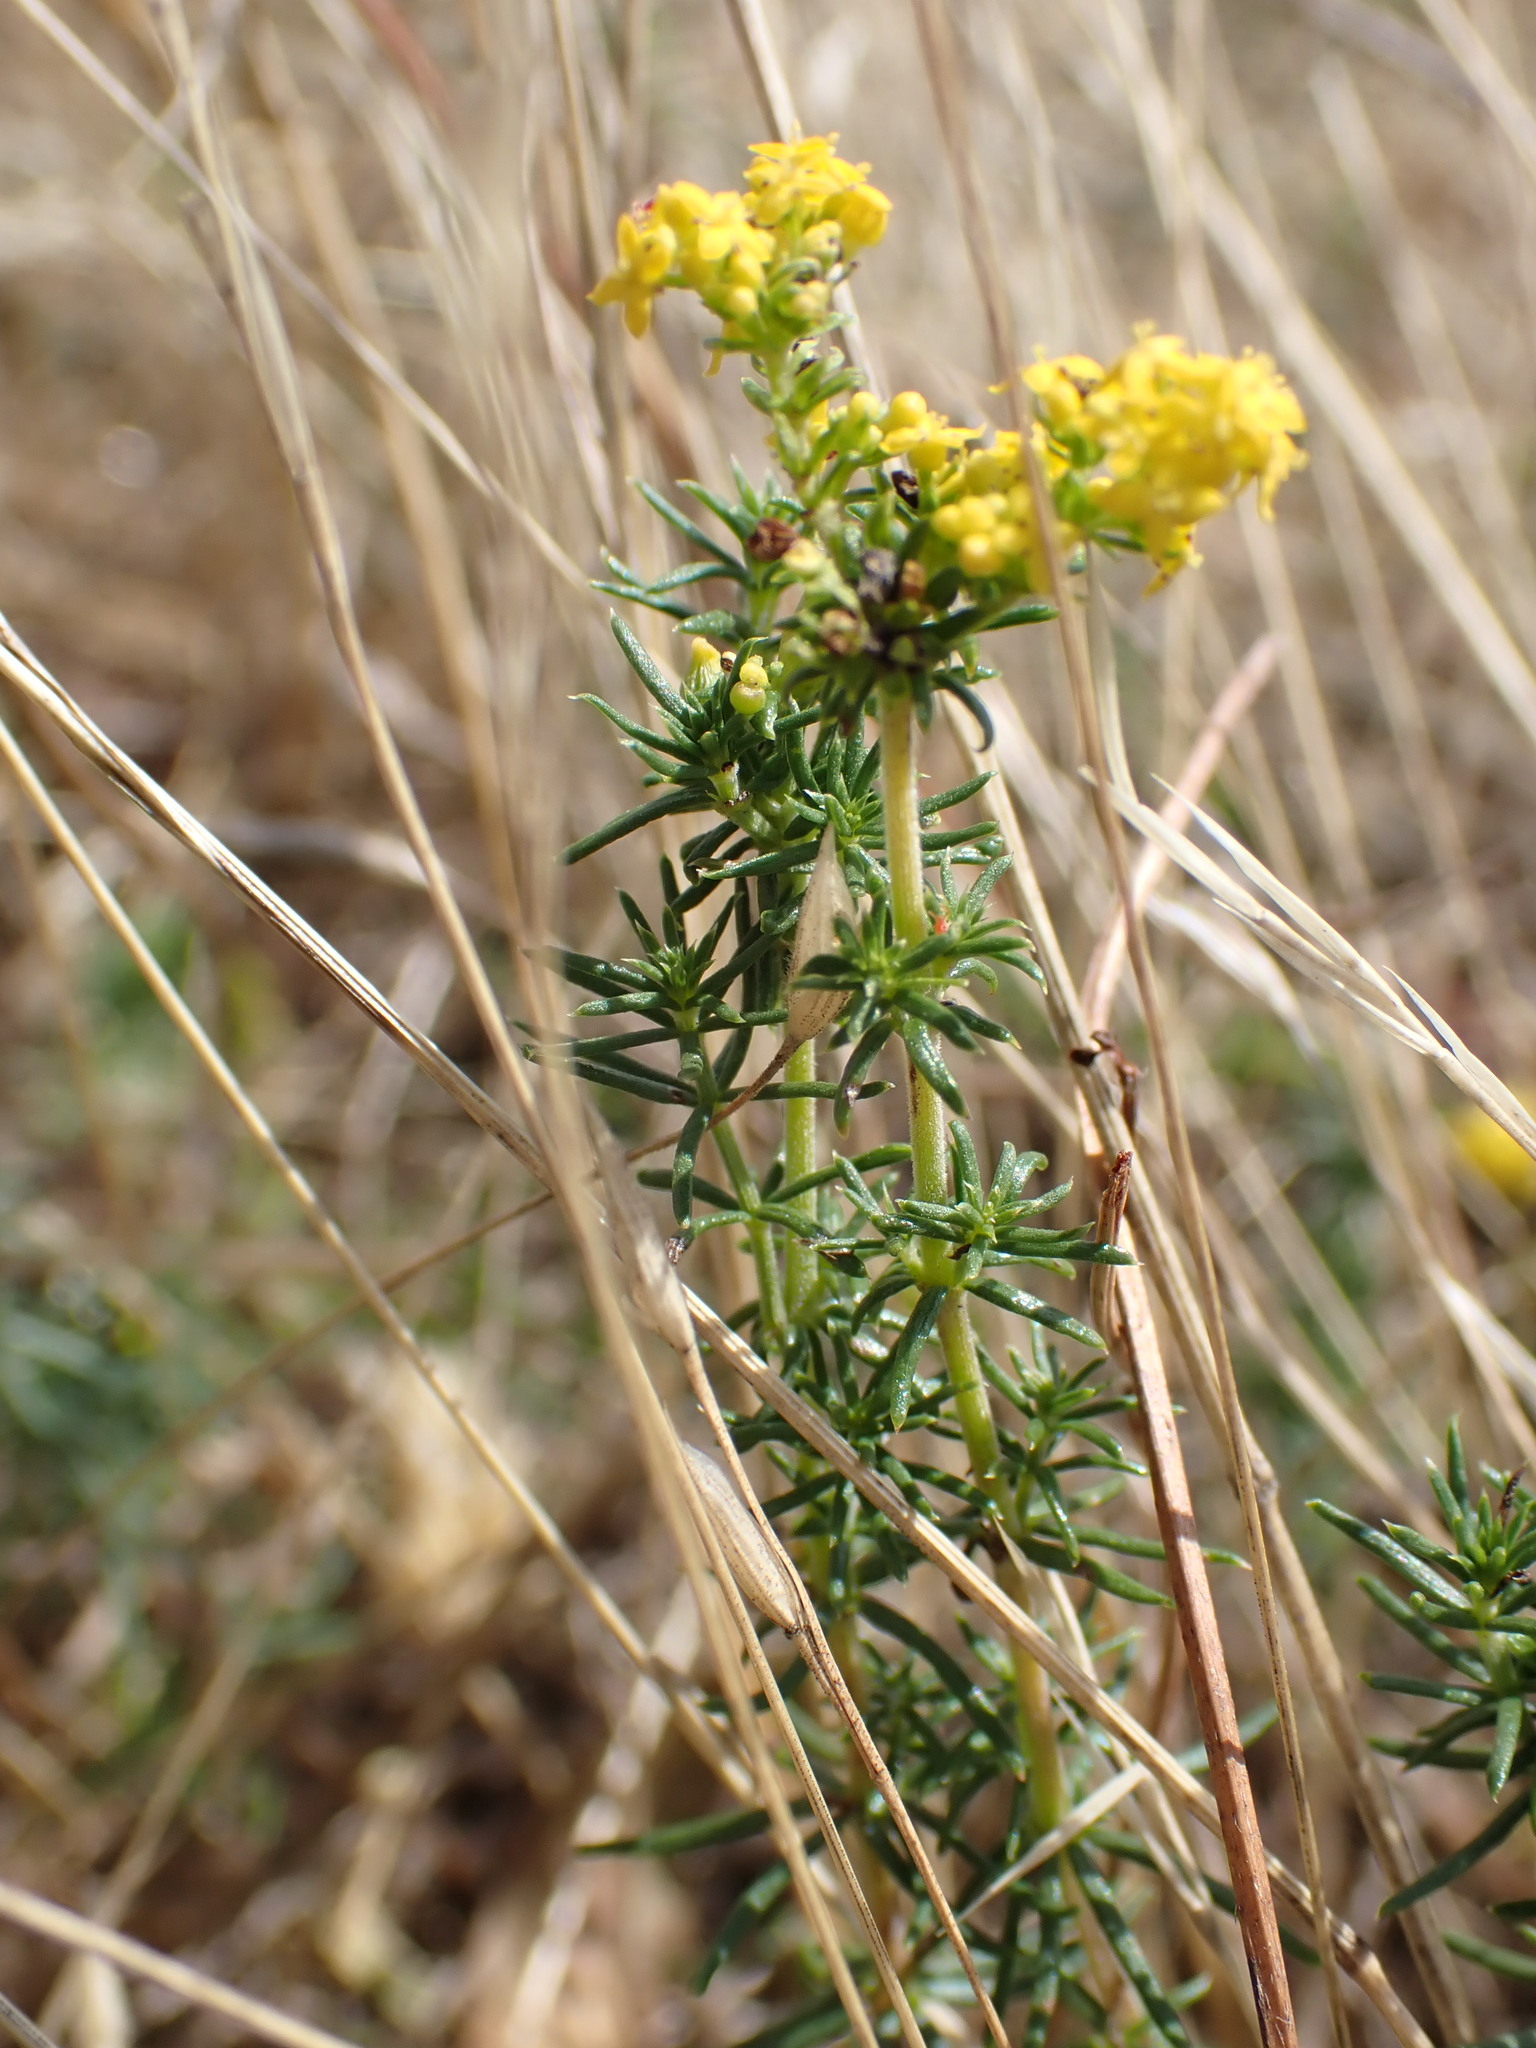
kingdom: Plantae
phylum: Tracheophyta
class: Magnoliopsida
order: Gentianales
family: Rubiaceae
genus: Galium
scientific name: Galium verum
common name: Lady's bedstraw
